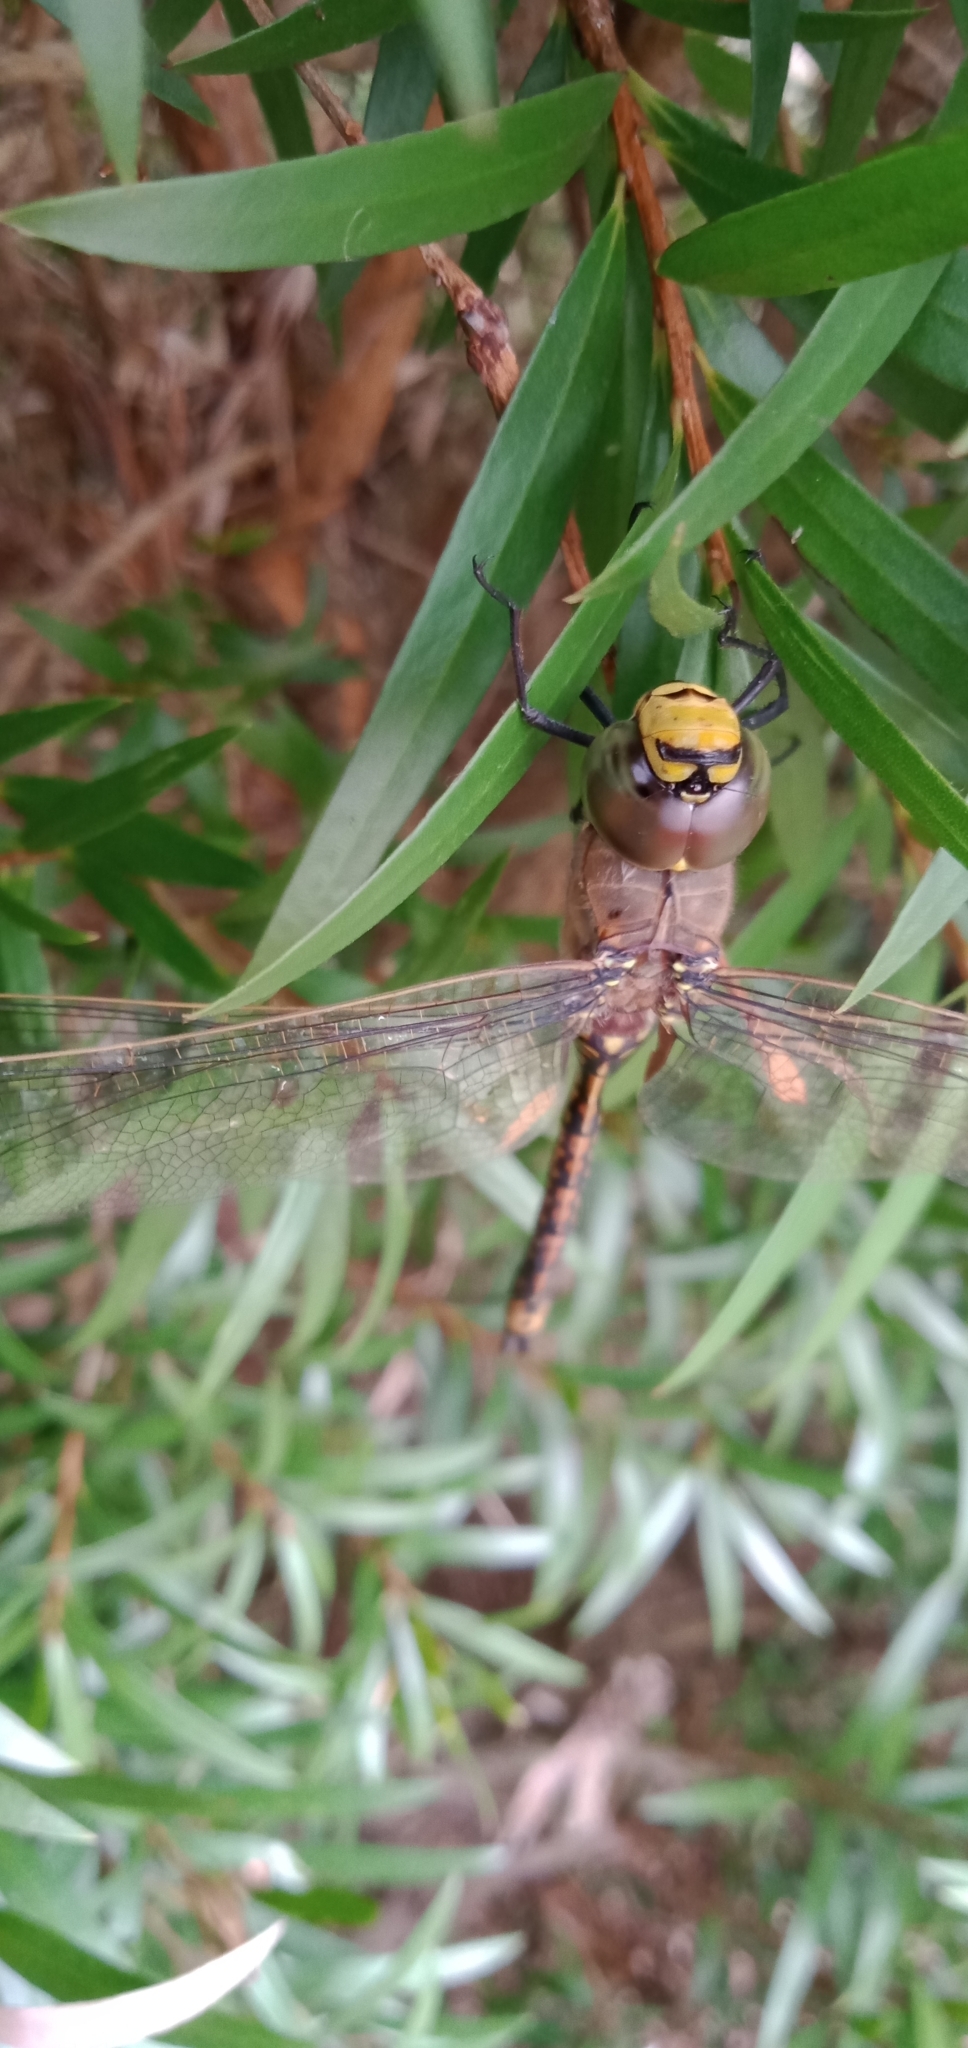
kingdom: Animalia
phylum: Arthropoda
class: Insecta
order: Odonata
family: Aeshnidae
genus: Anax
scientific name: Anax papuensis
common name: Australian emperor
